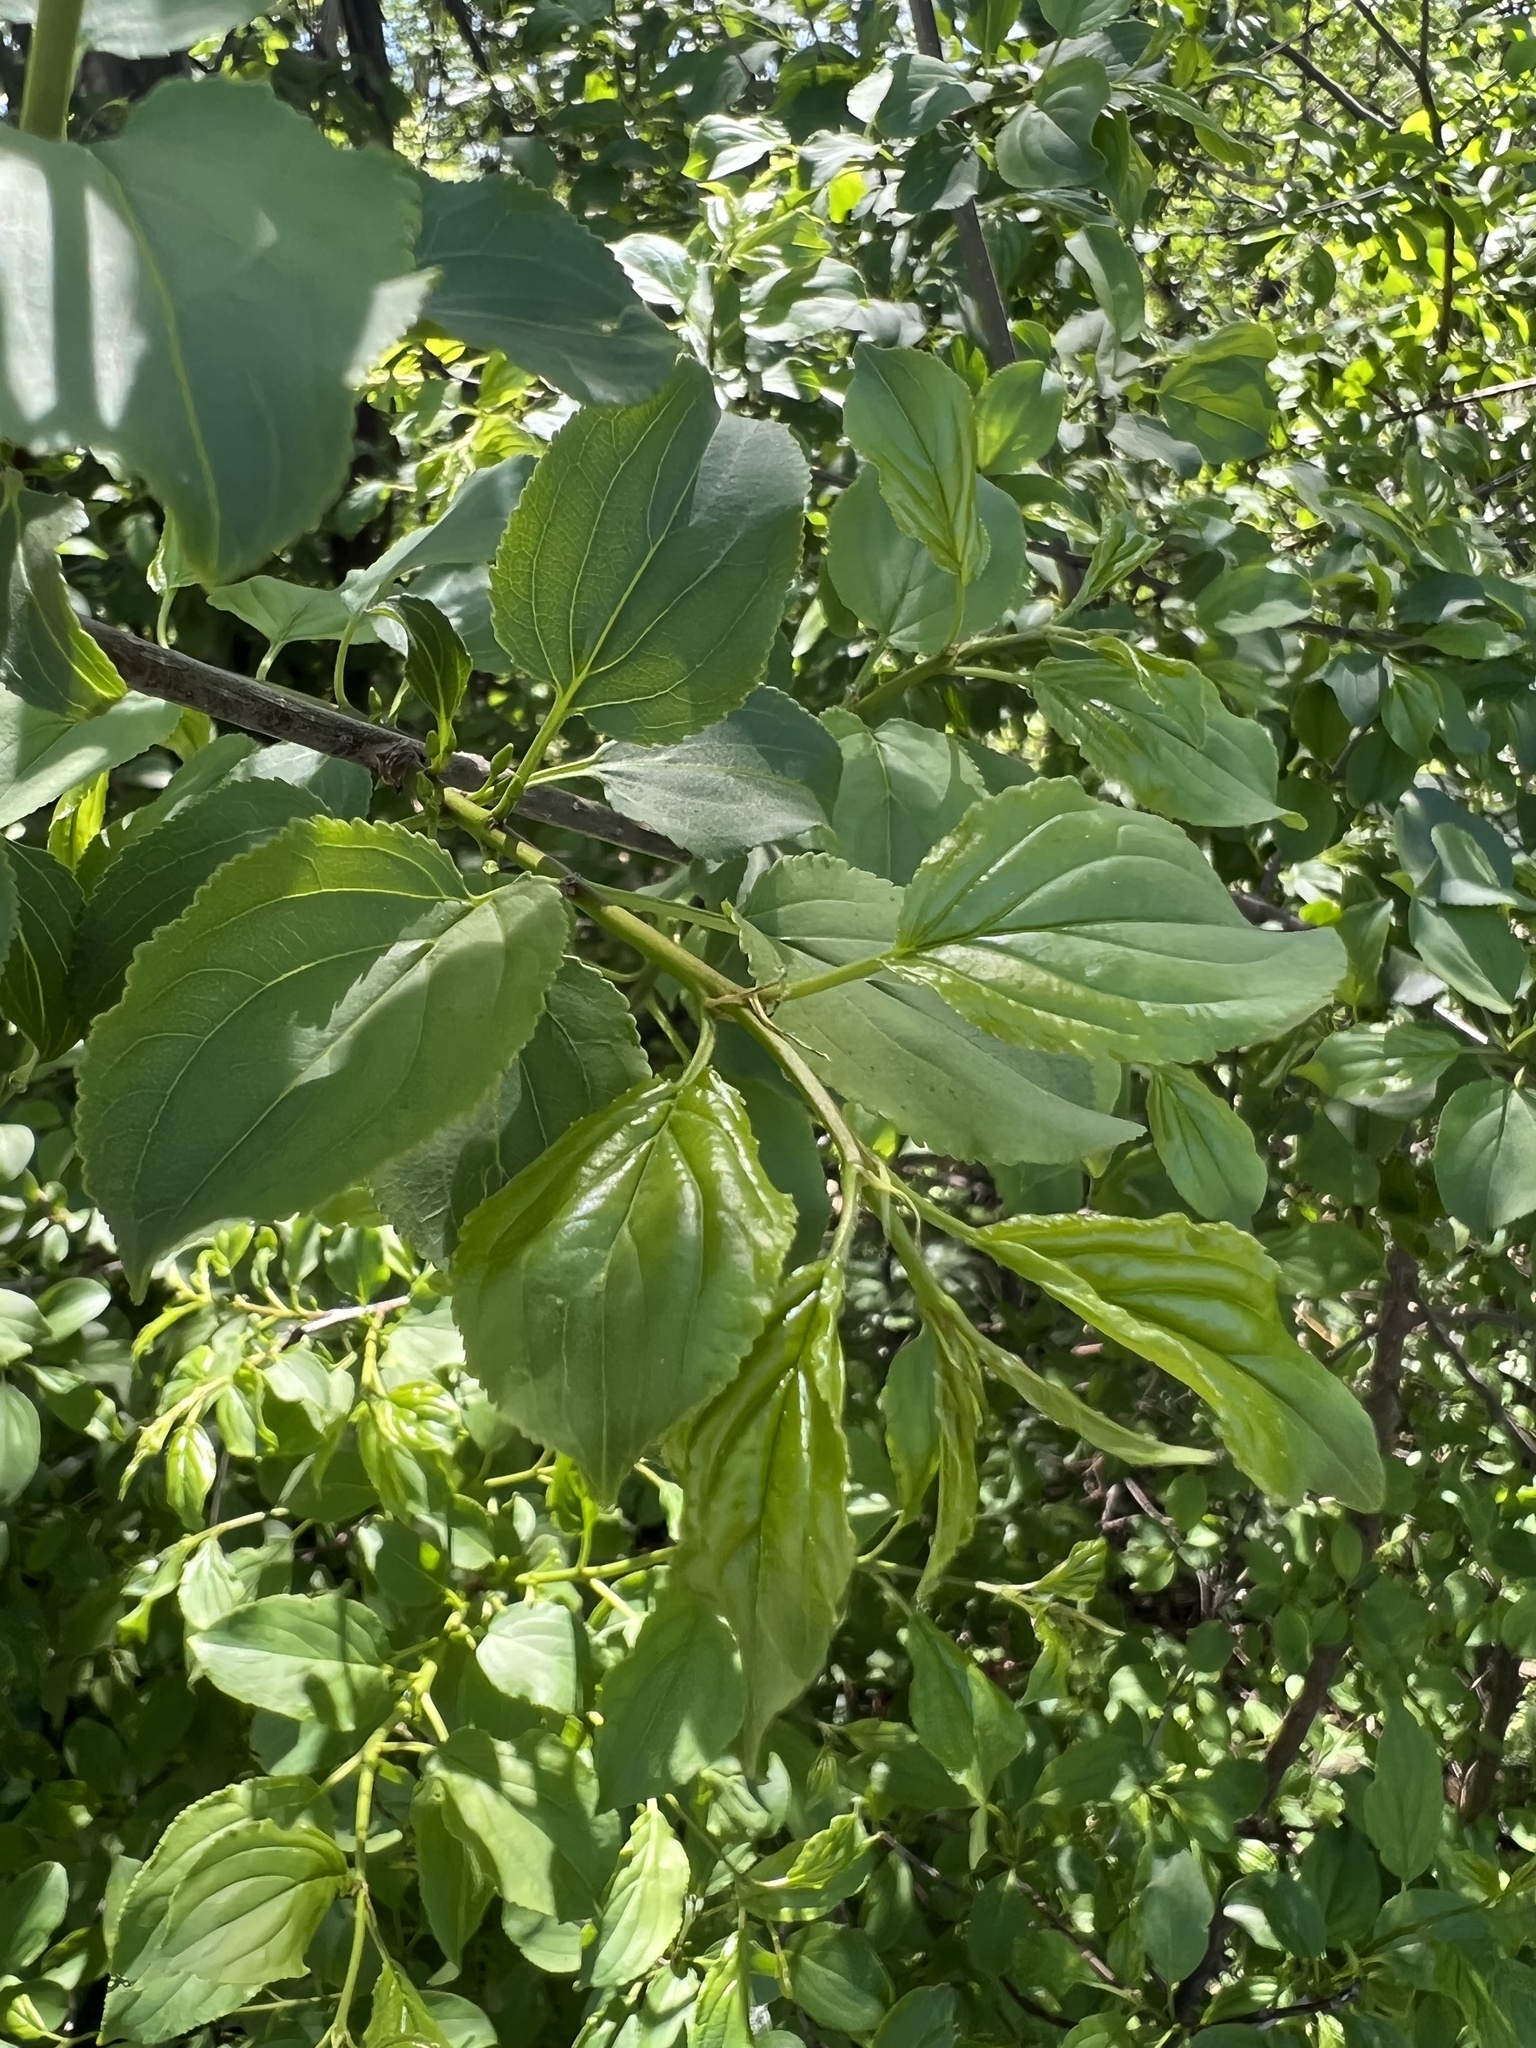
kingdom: Plantae
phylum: Tracheophyta
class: Magnoliopsida
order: Rosales
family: Rhamnaceae
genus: Rhamnus
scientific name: Rhamnus cathartica
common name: Common buckthorn
